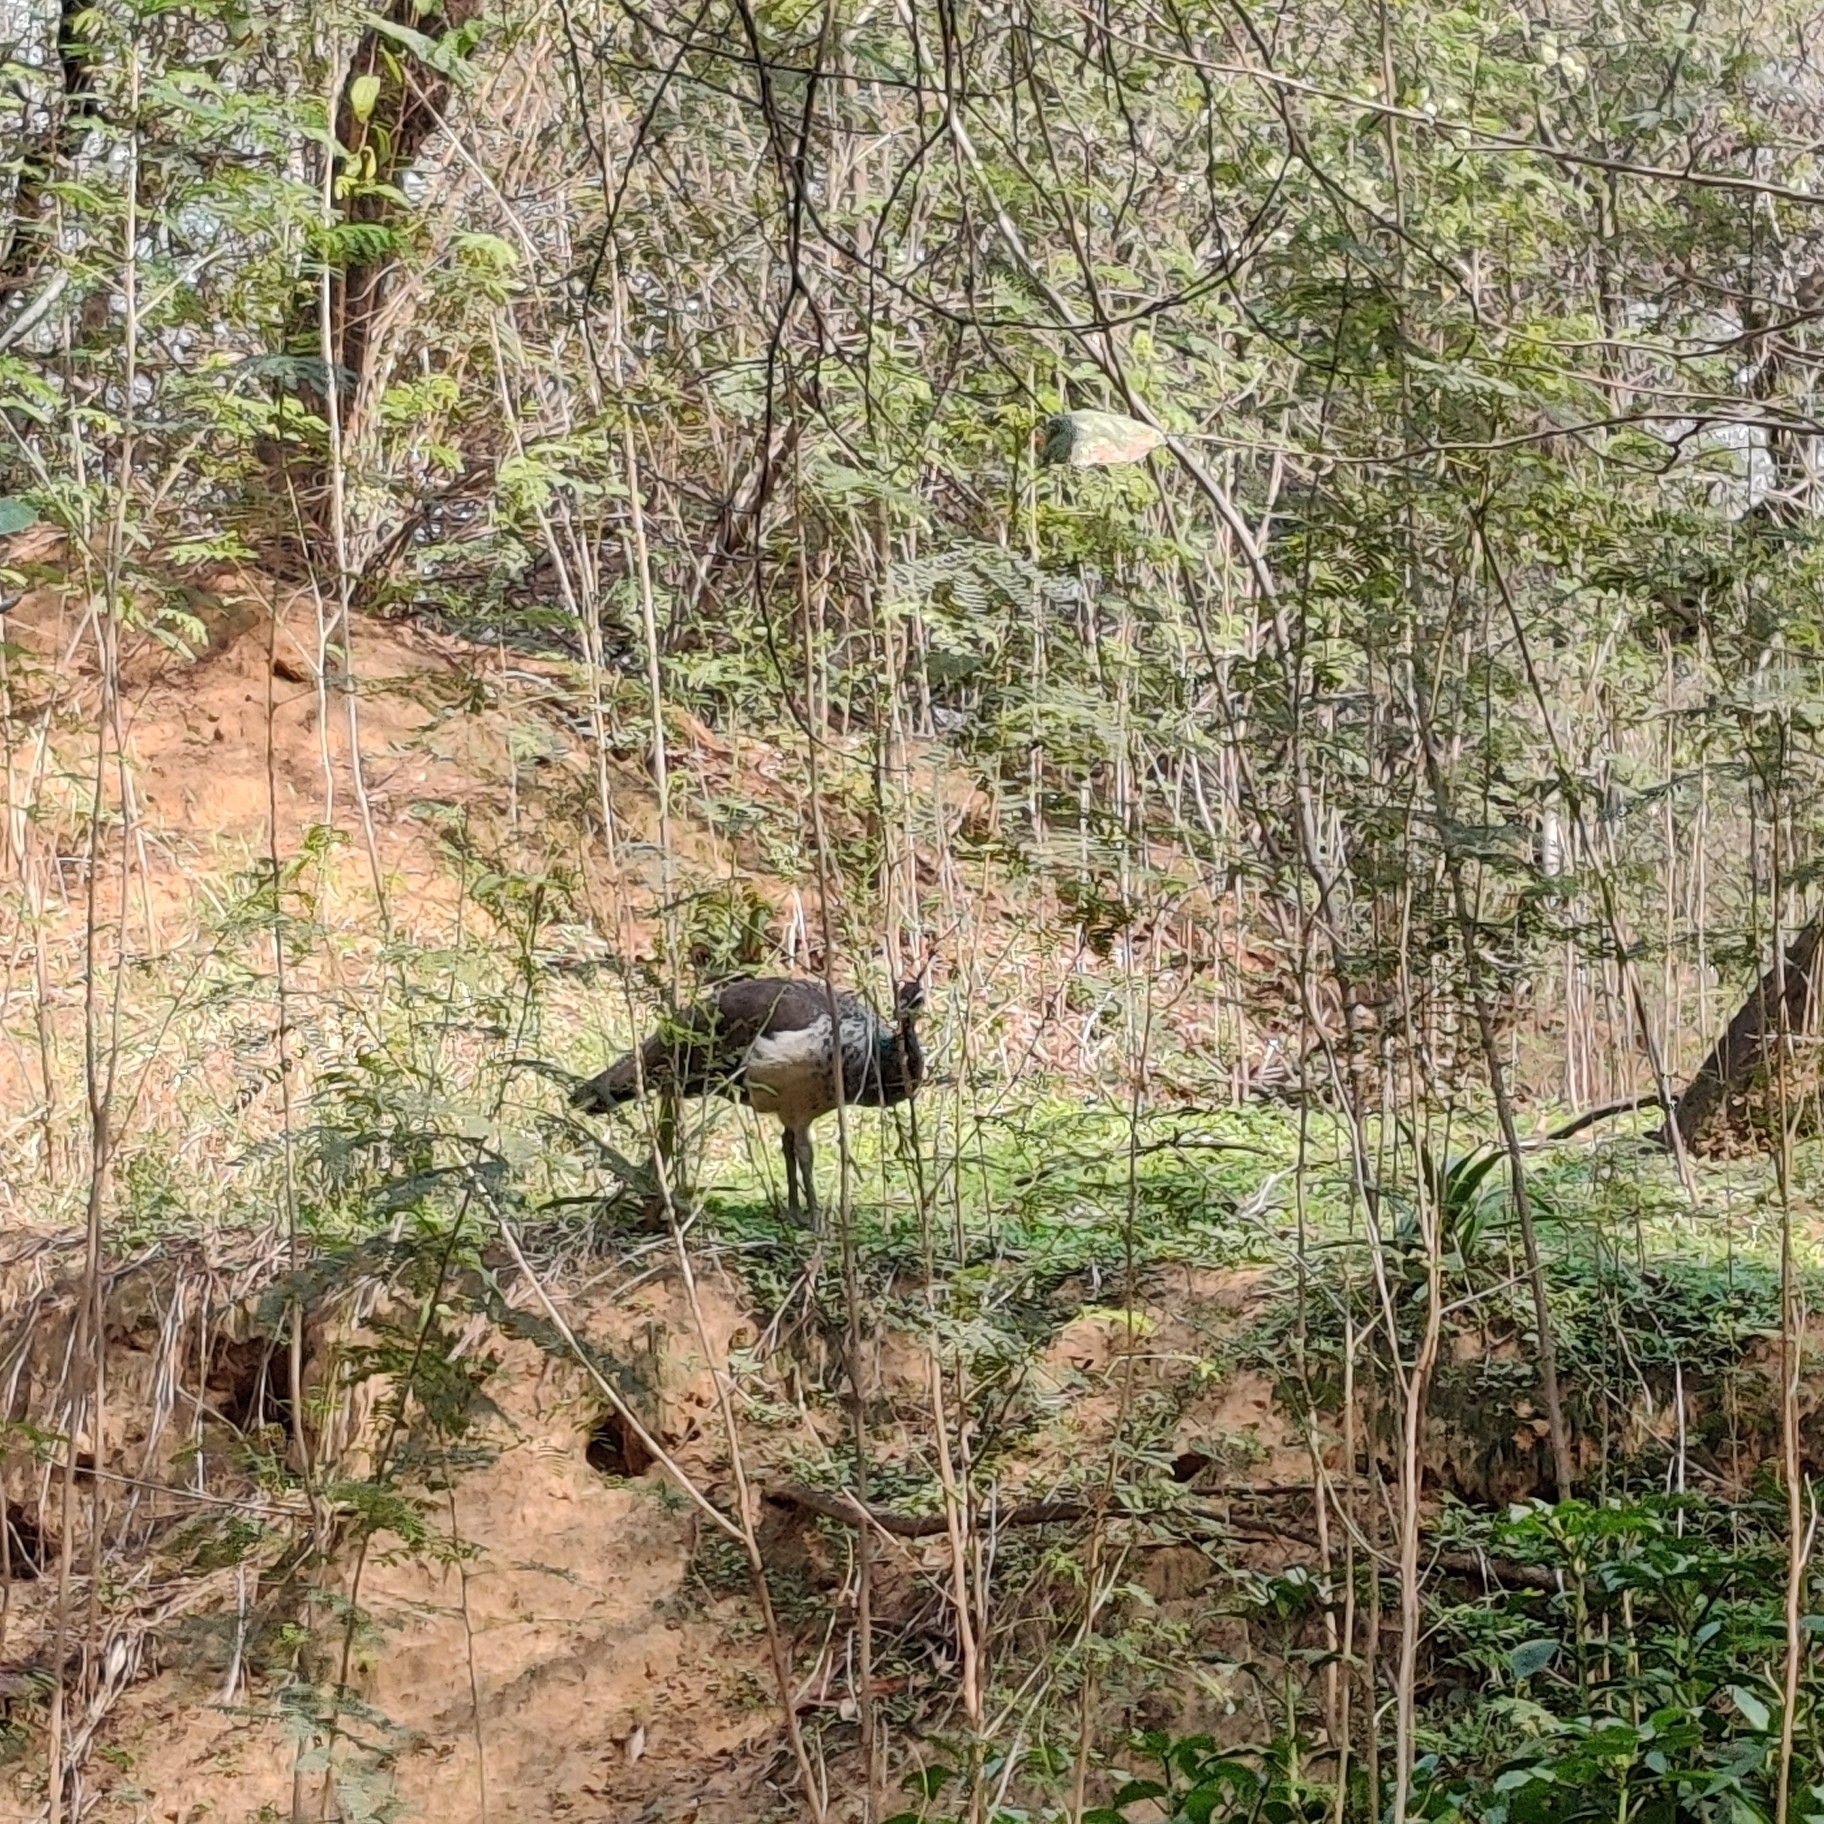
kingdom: Animalia
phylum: Chordata
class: Aves
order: Galliformes
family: Phasianidae
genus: Pavo
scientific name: Pavo cristatus
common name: Indian peafowl
